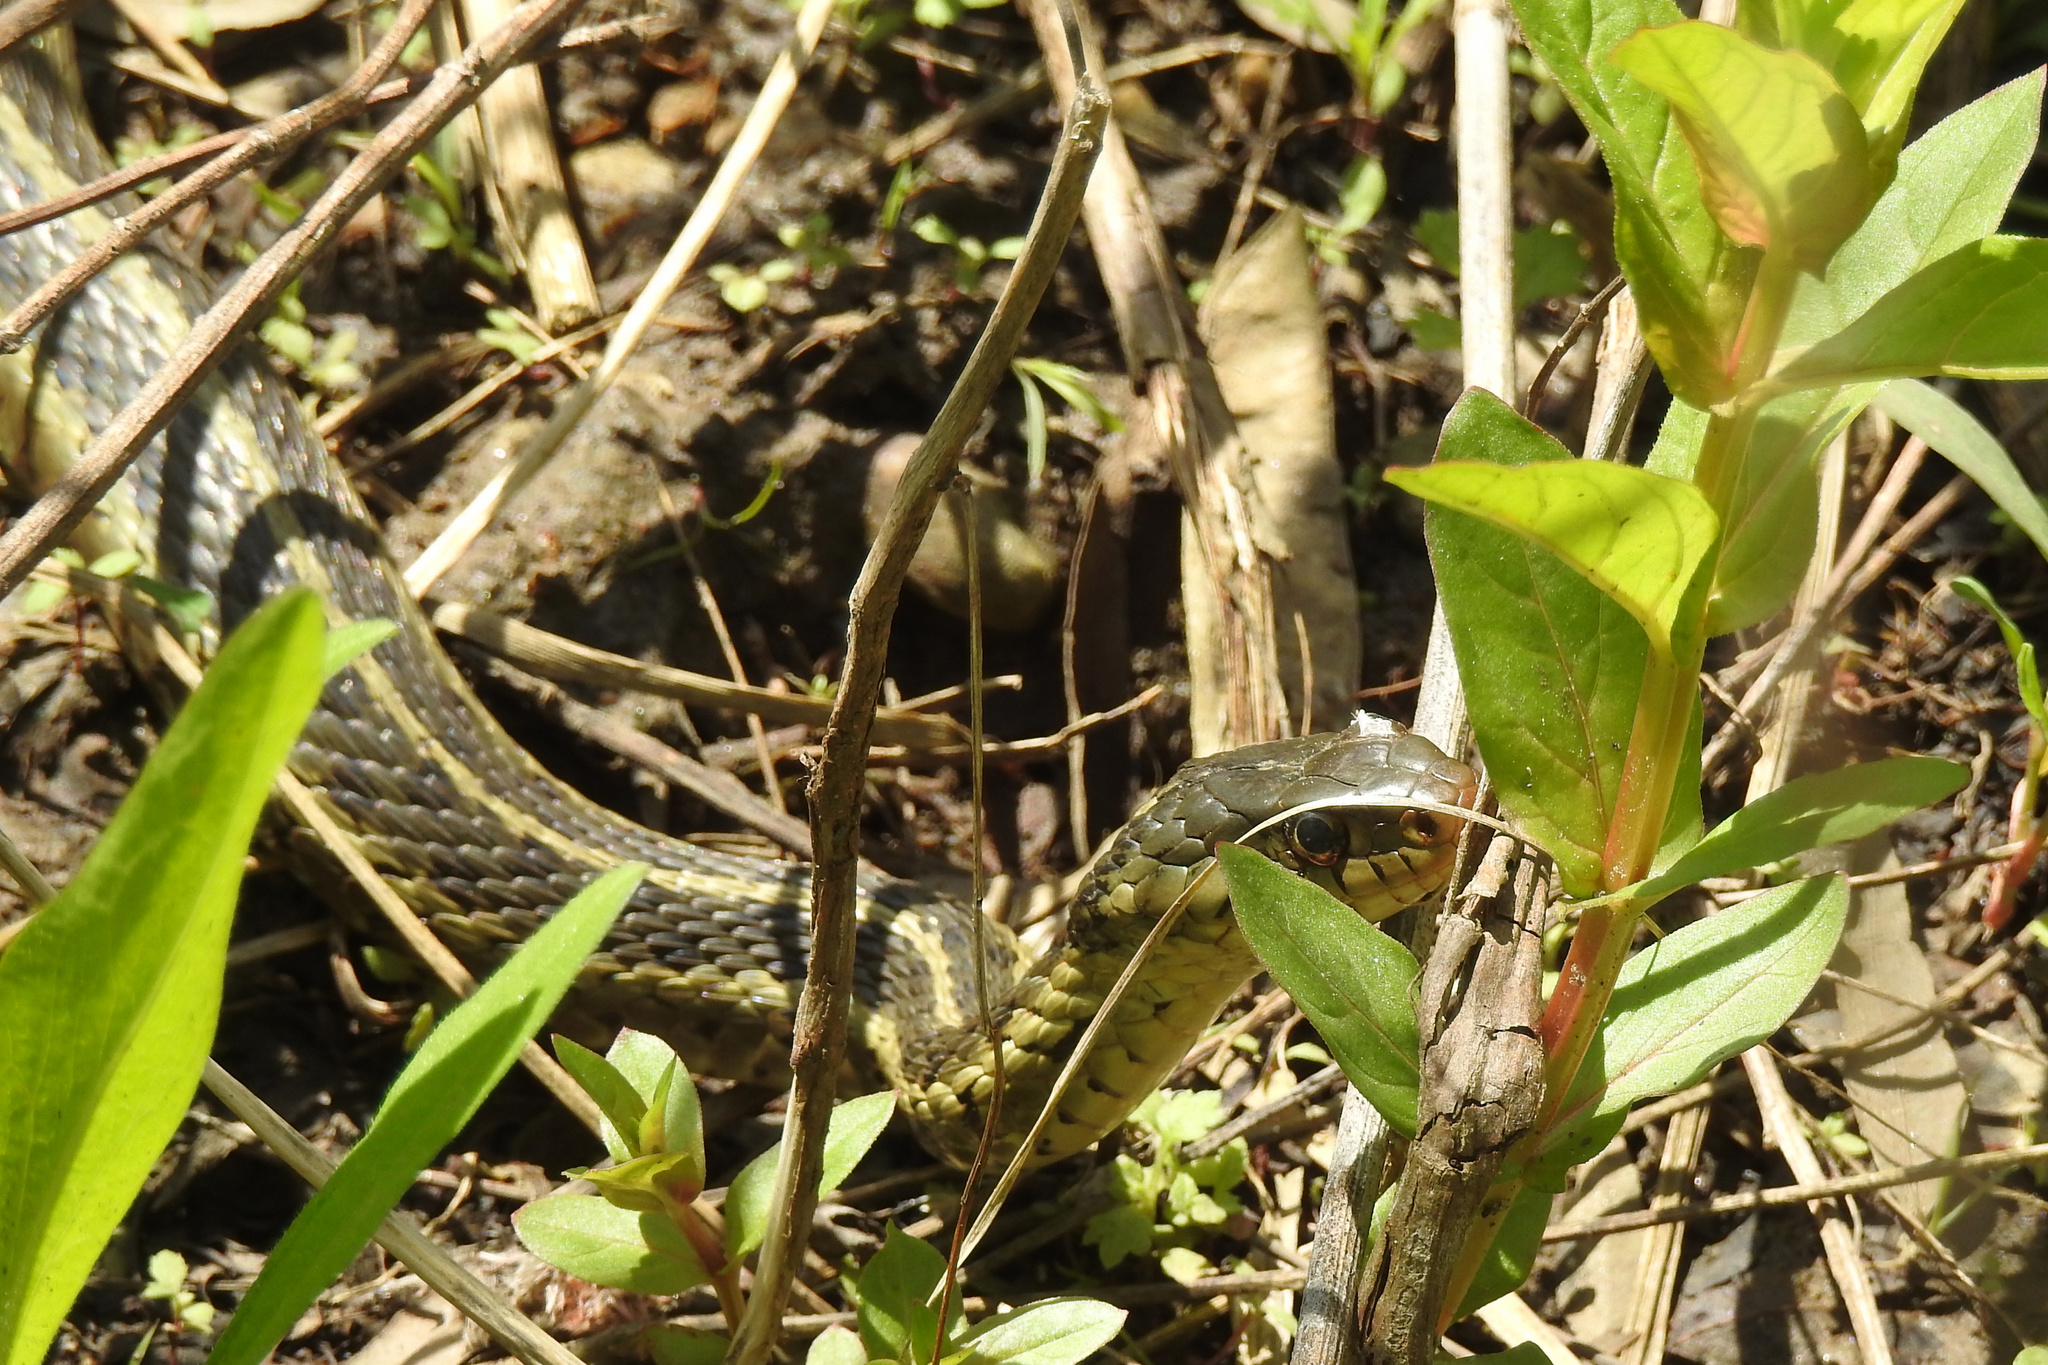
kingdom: Animalia
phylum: Chordata
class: Squamata
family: Colubridae
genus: Thamnophis
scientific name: Thamnophis sirtalis
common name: Common garter snake
